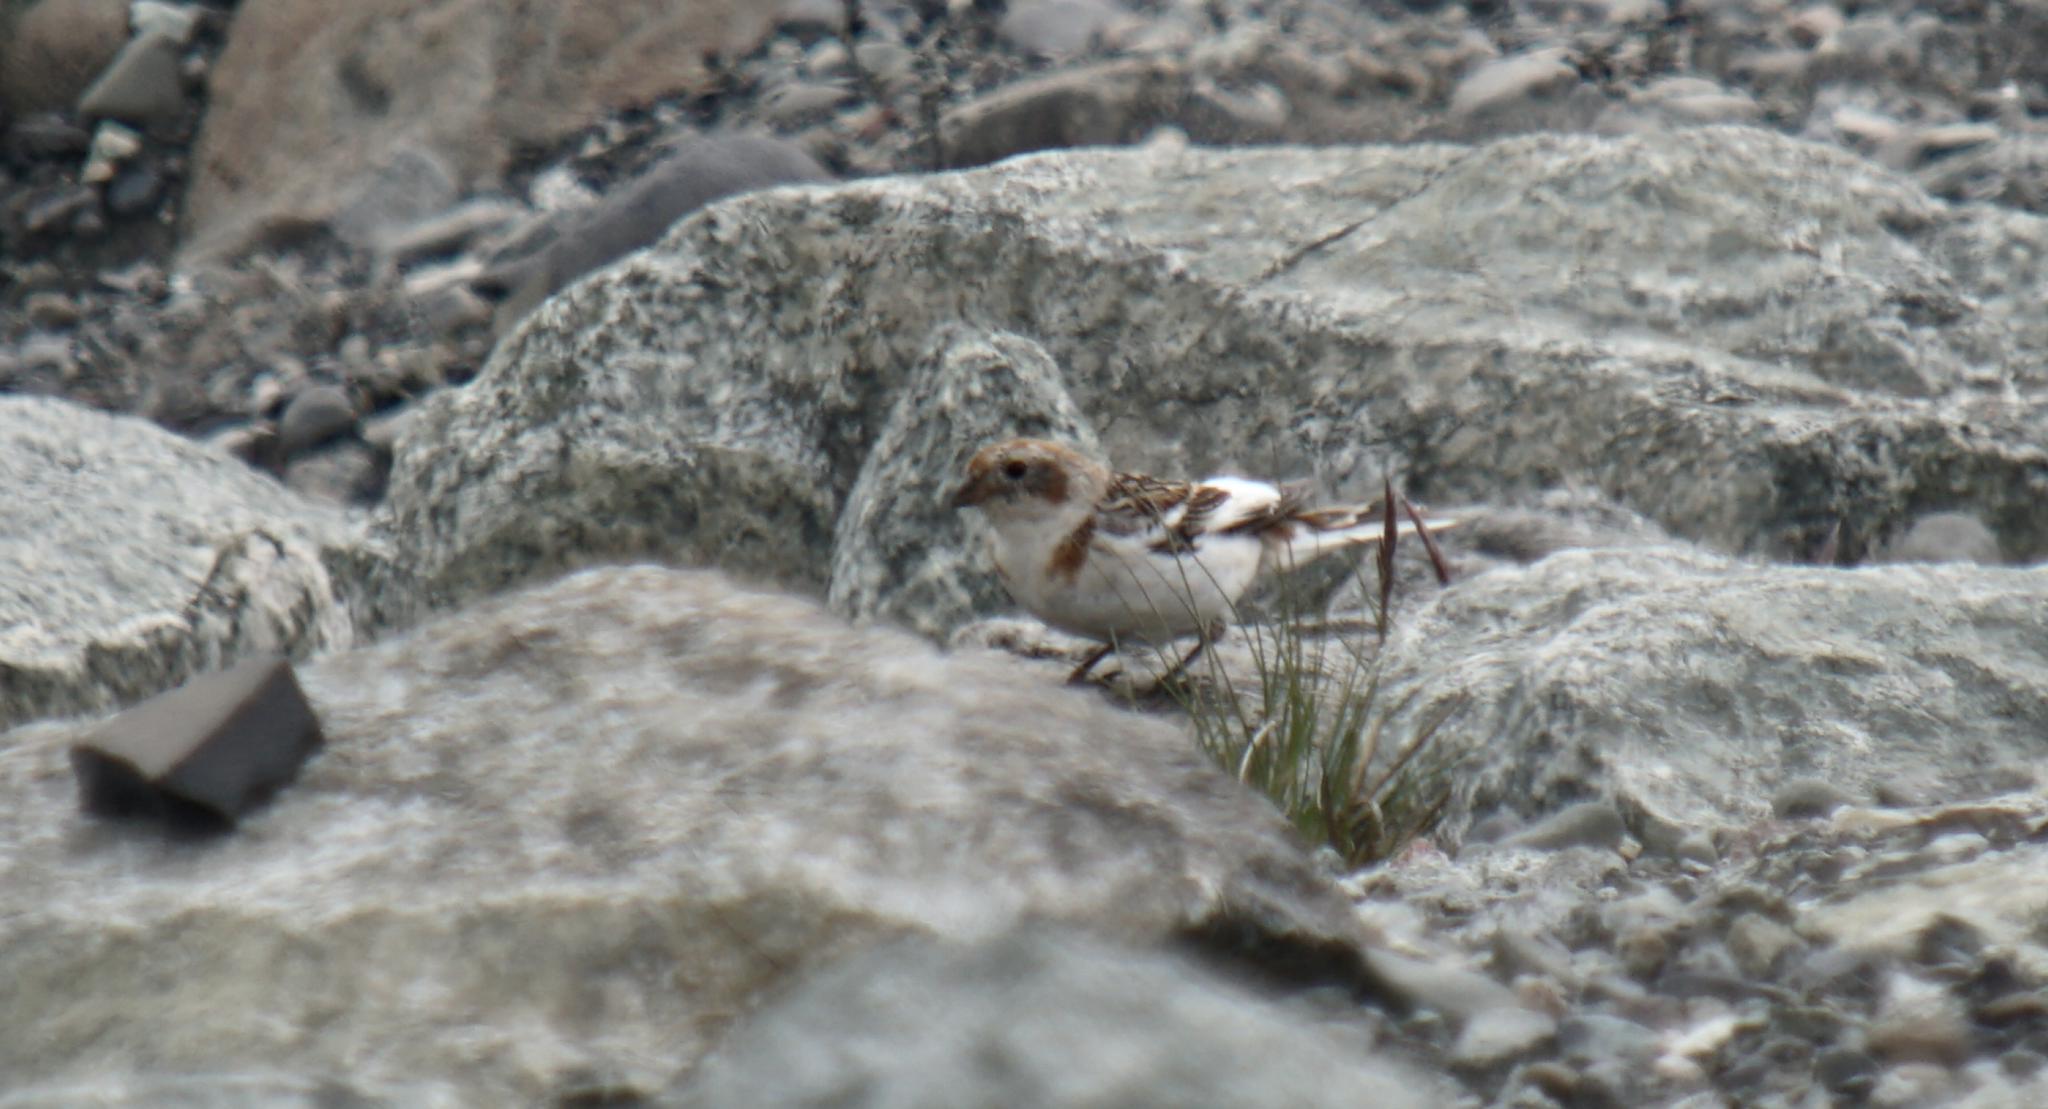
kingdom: Animalia
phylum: Chordata
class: Aves
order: Passeriformes
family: Calcariidae
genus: Plectrophenax
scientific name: Plectrophenax nivalis
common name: Snow bunting
